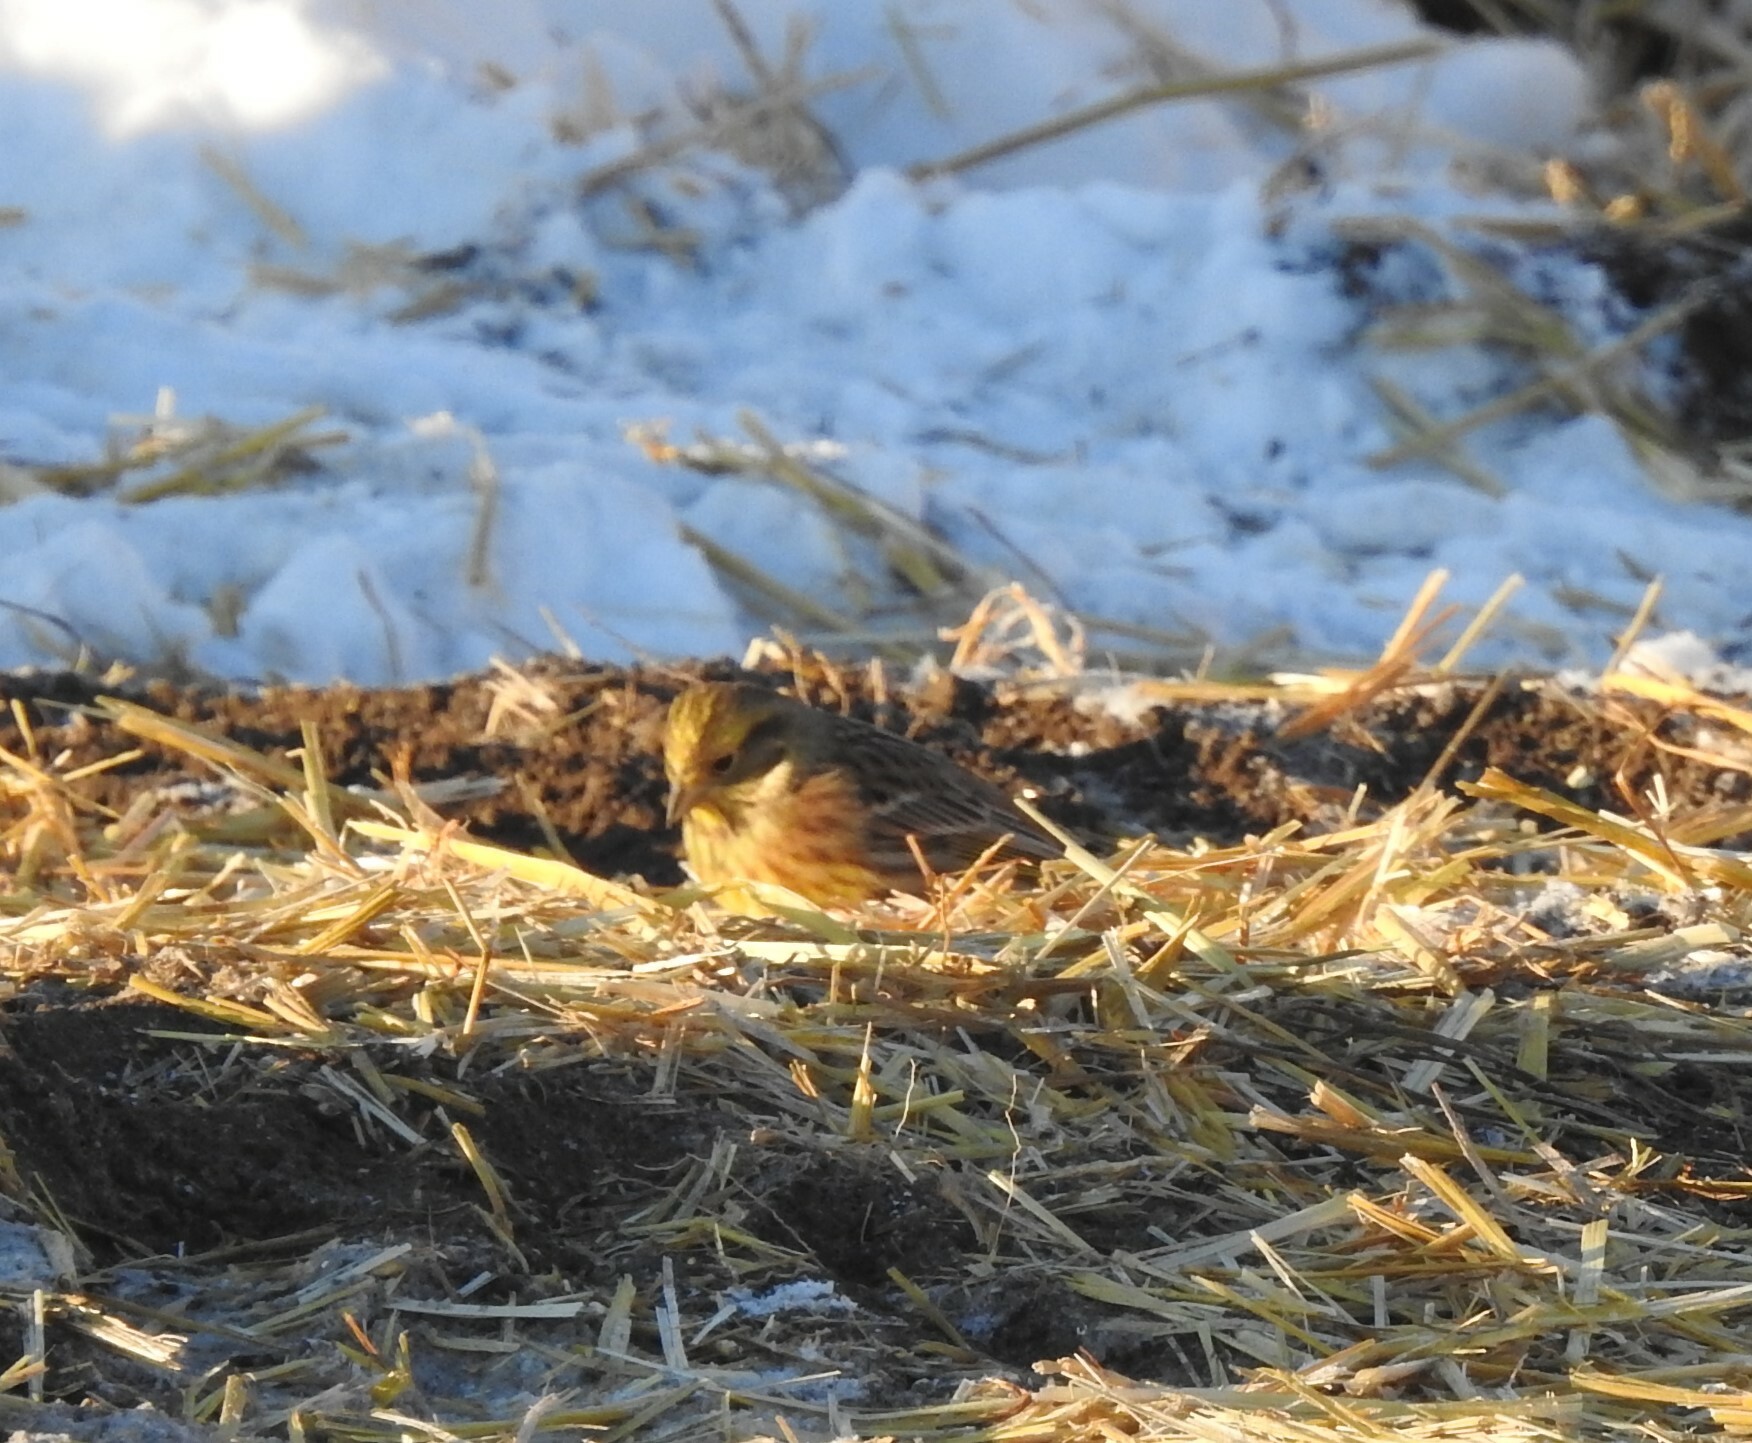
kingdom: Animalia
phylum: Chordata
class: Aves
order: Passeriformes
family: Emberizidae
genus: Emberiza
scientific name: Emberiza citrinella
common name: Yellowhammer
